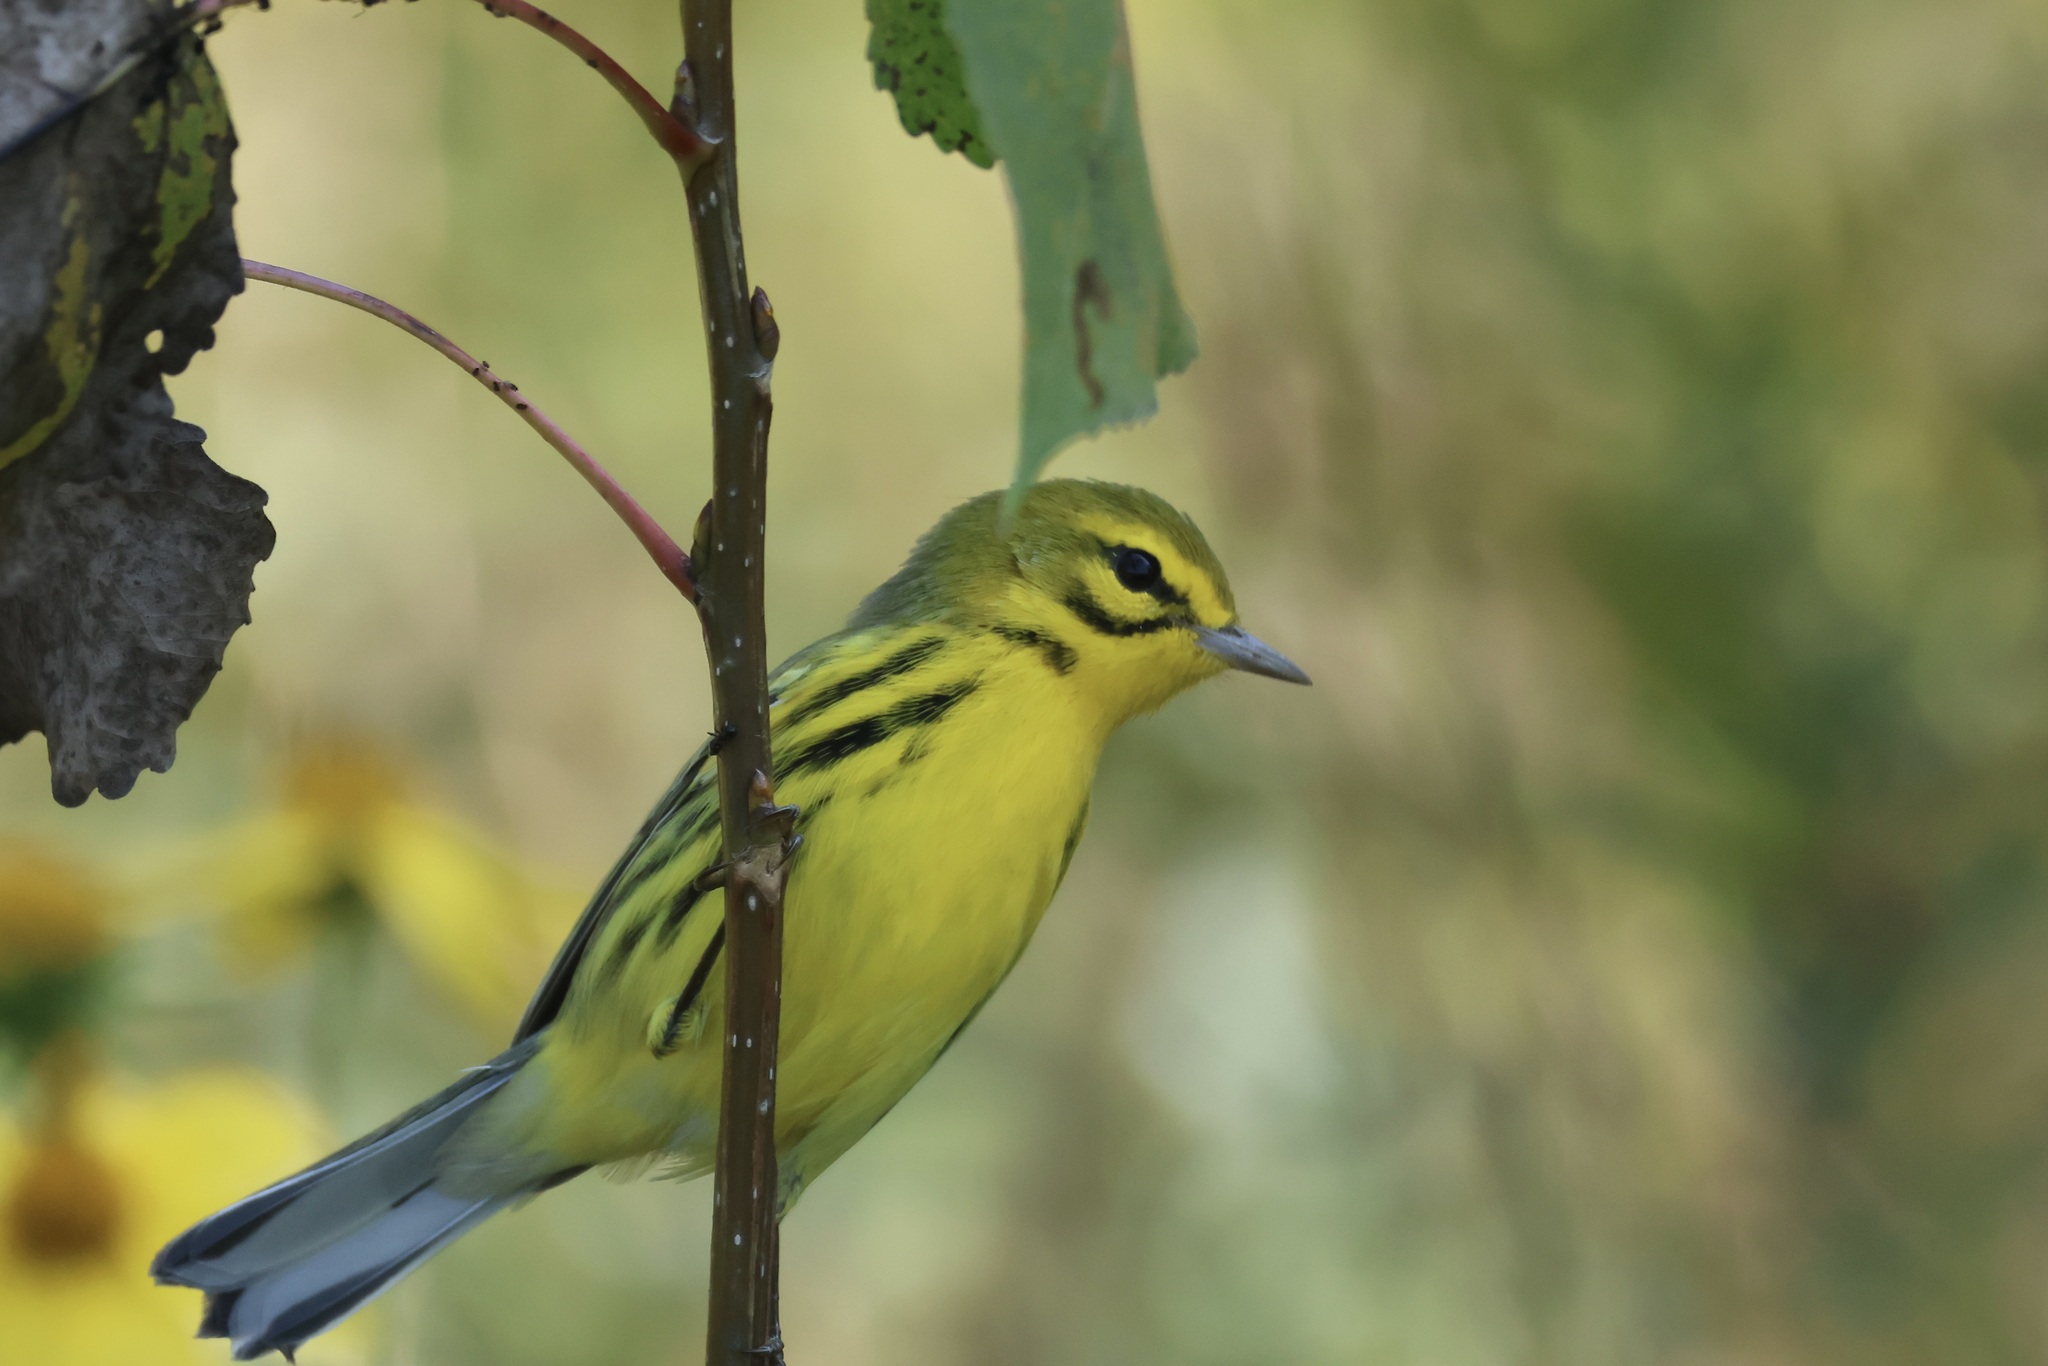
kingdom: Animalia
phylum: Chordata
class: Aves
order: Passeriformes
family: Parulidae
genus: Setophaga
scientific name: Setophaga discolor
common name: Prairie warbler
